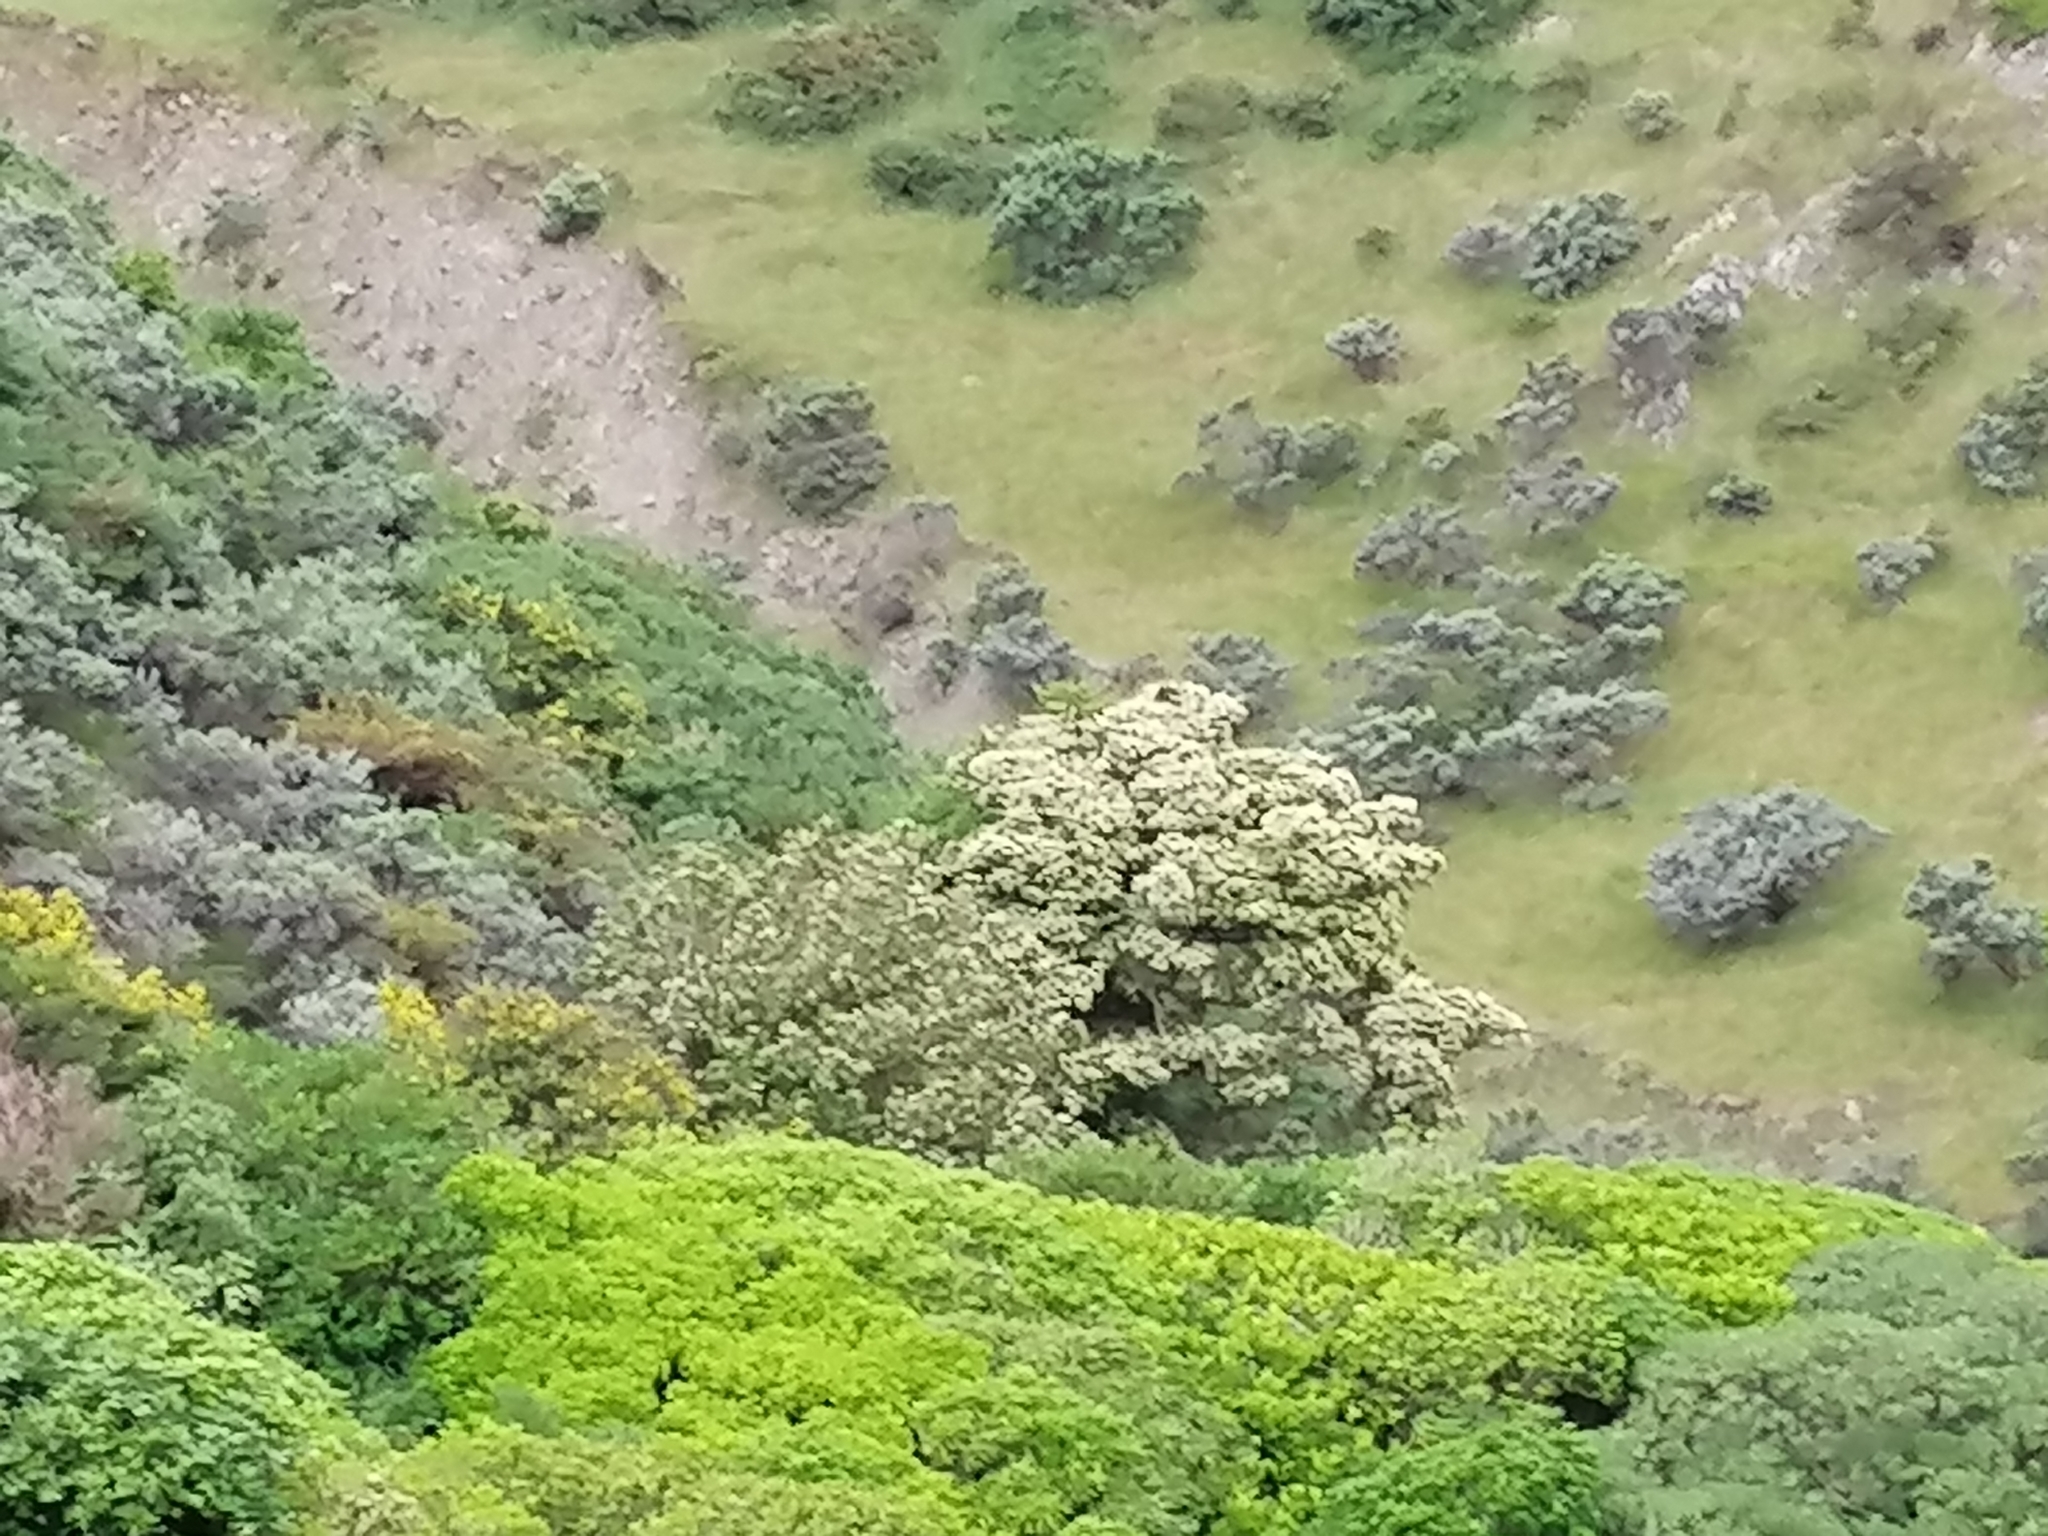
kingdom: Plantae
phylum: Tracheophyta
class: Magnoliopsida
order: Apiales
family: Pennantiaceae
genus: Pennantia
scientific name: Pennantia corymbosa
